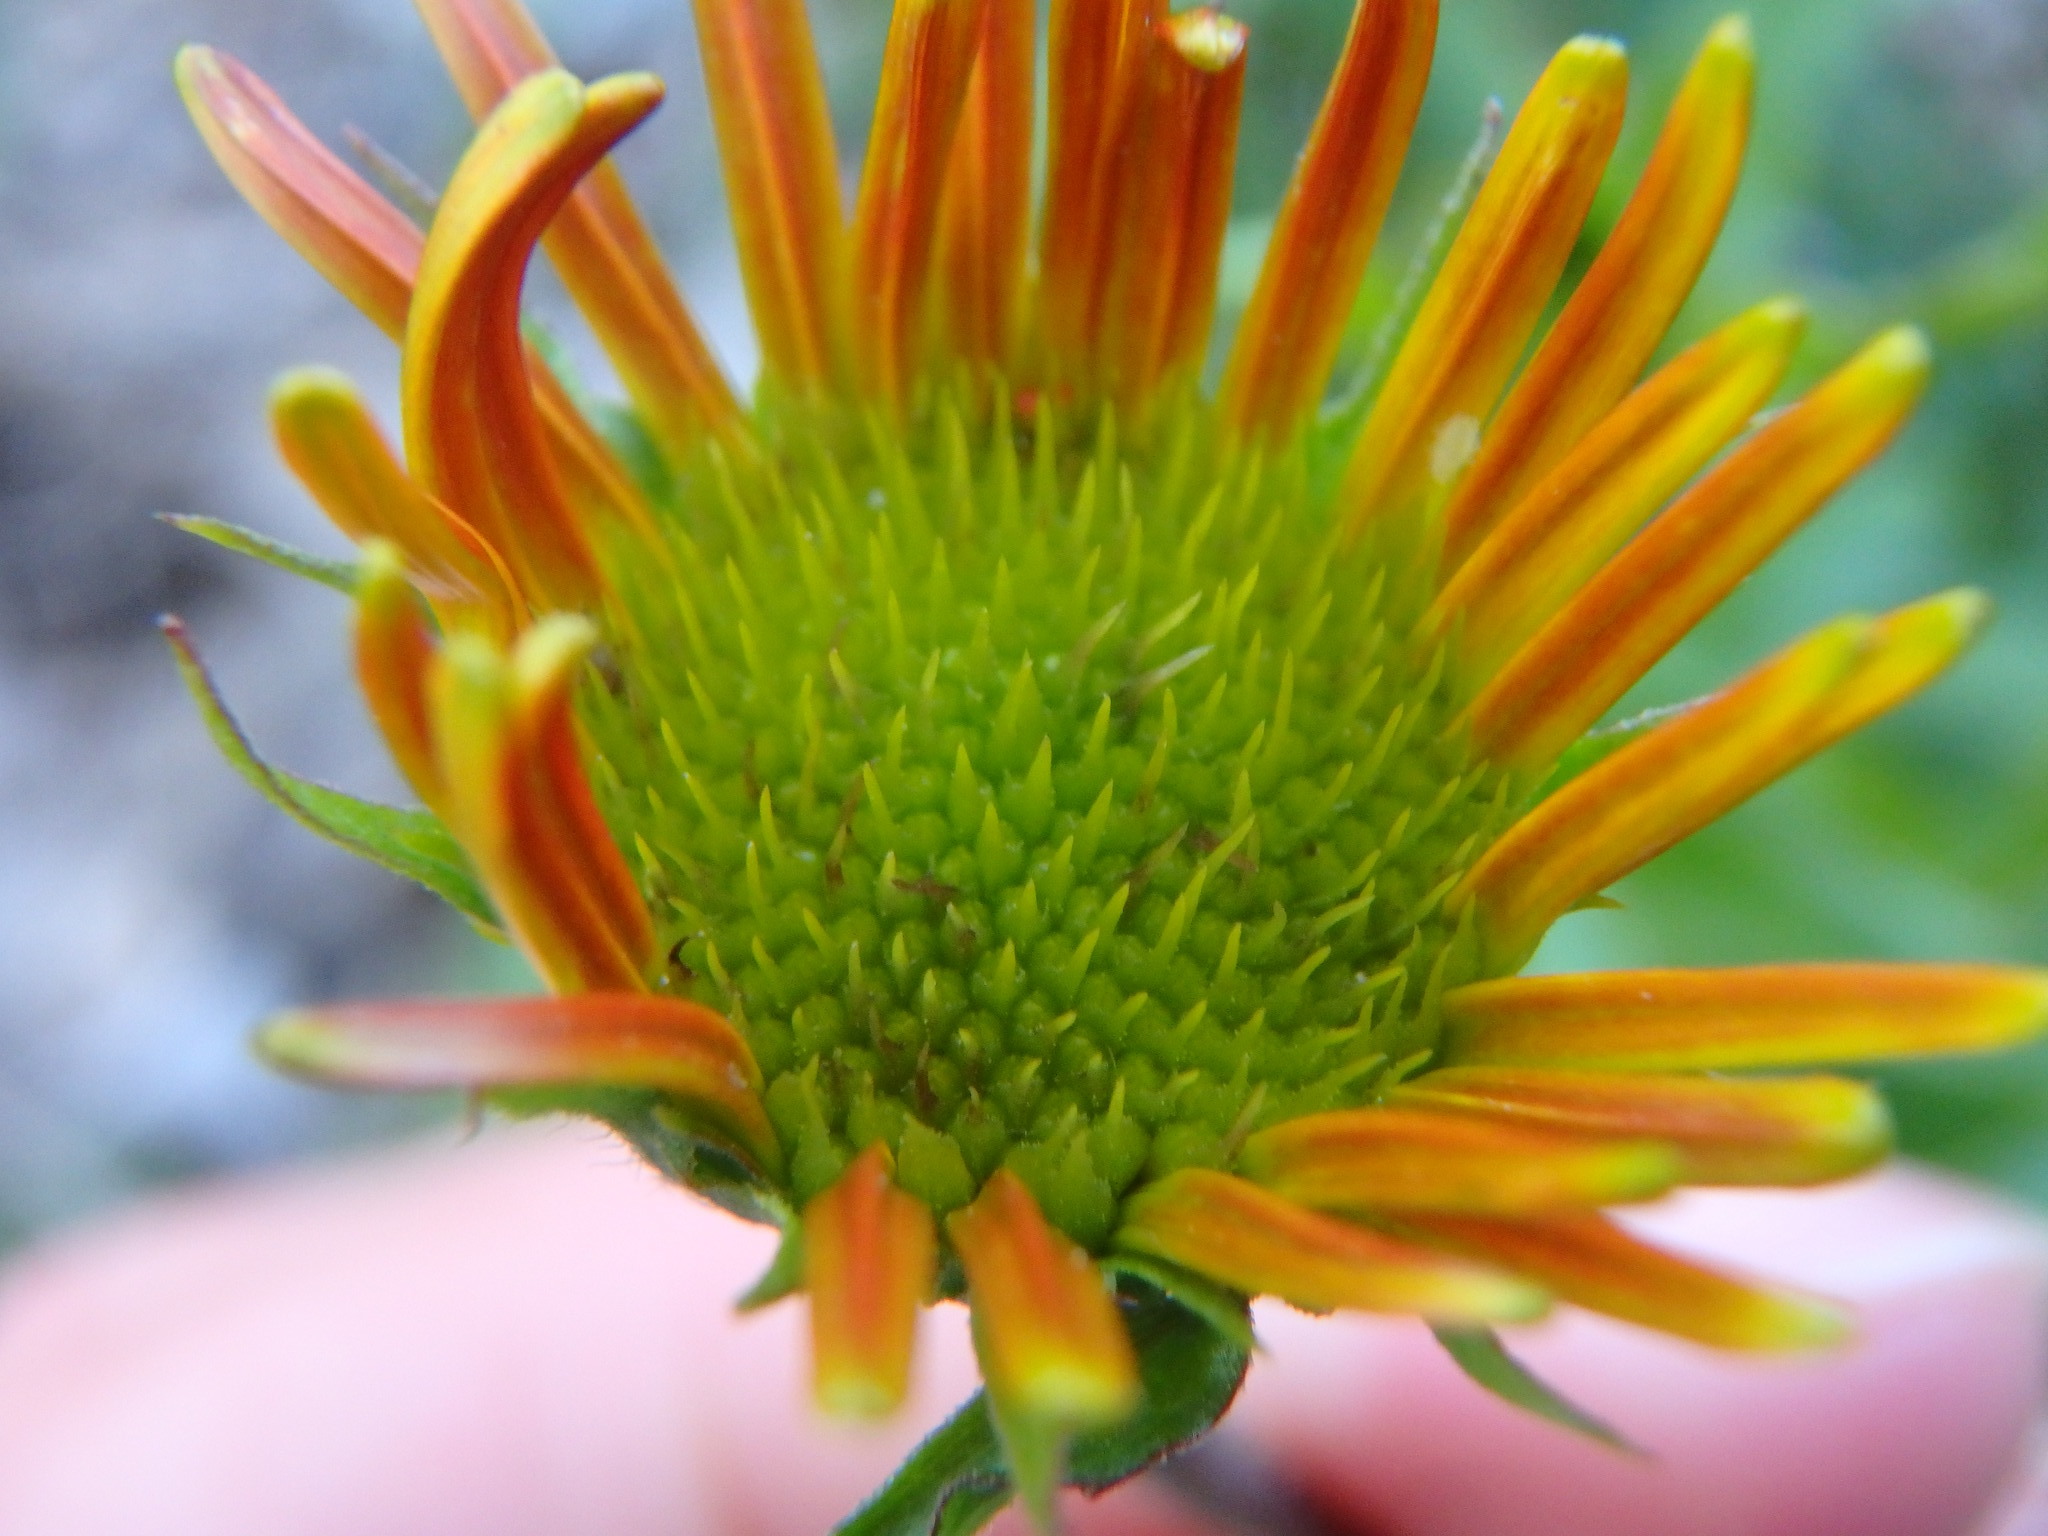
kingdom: Plantae
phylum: Tracheophyta
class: Magnoliopsida
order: Asterales
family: Asteraceae
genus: Buphthalmum
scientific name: Buphthalmum salicifolium
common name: Willow-leaved yellow-oxeye
